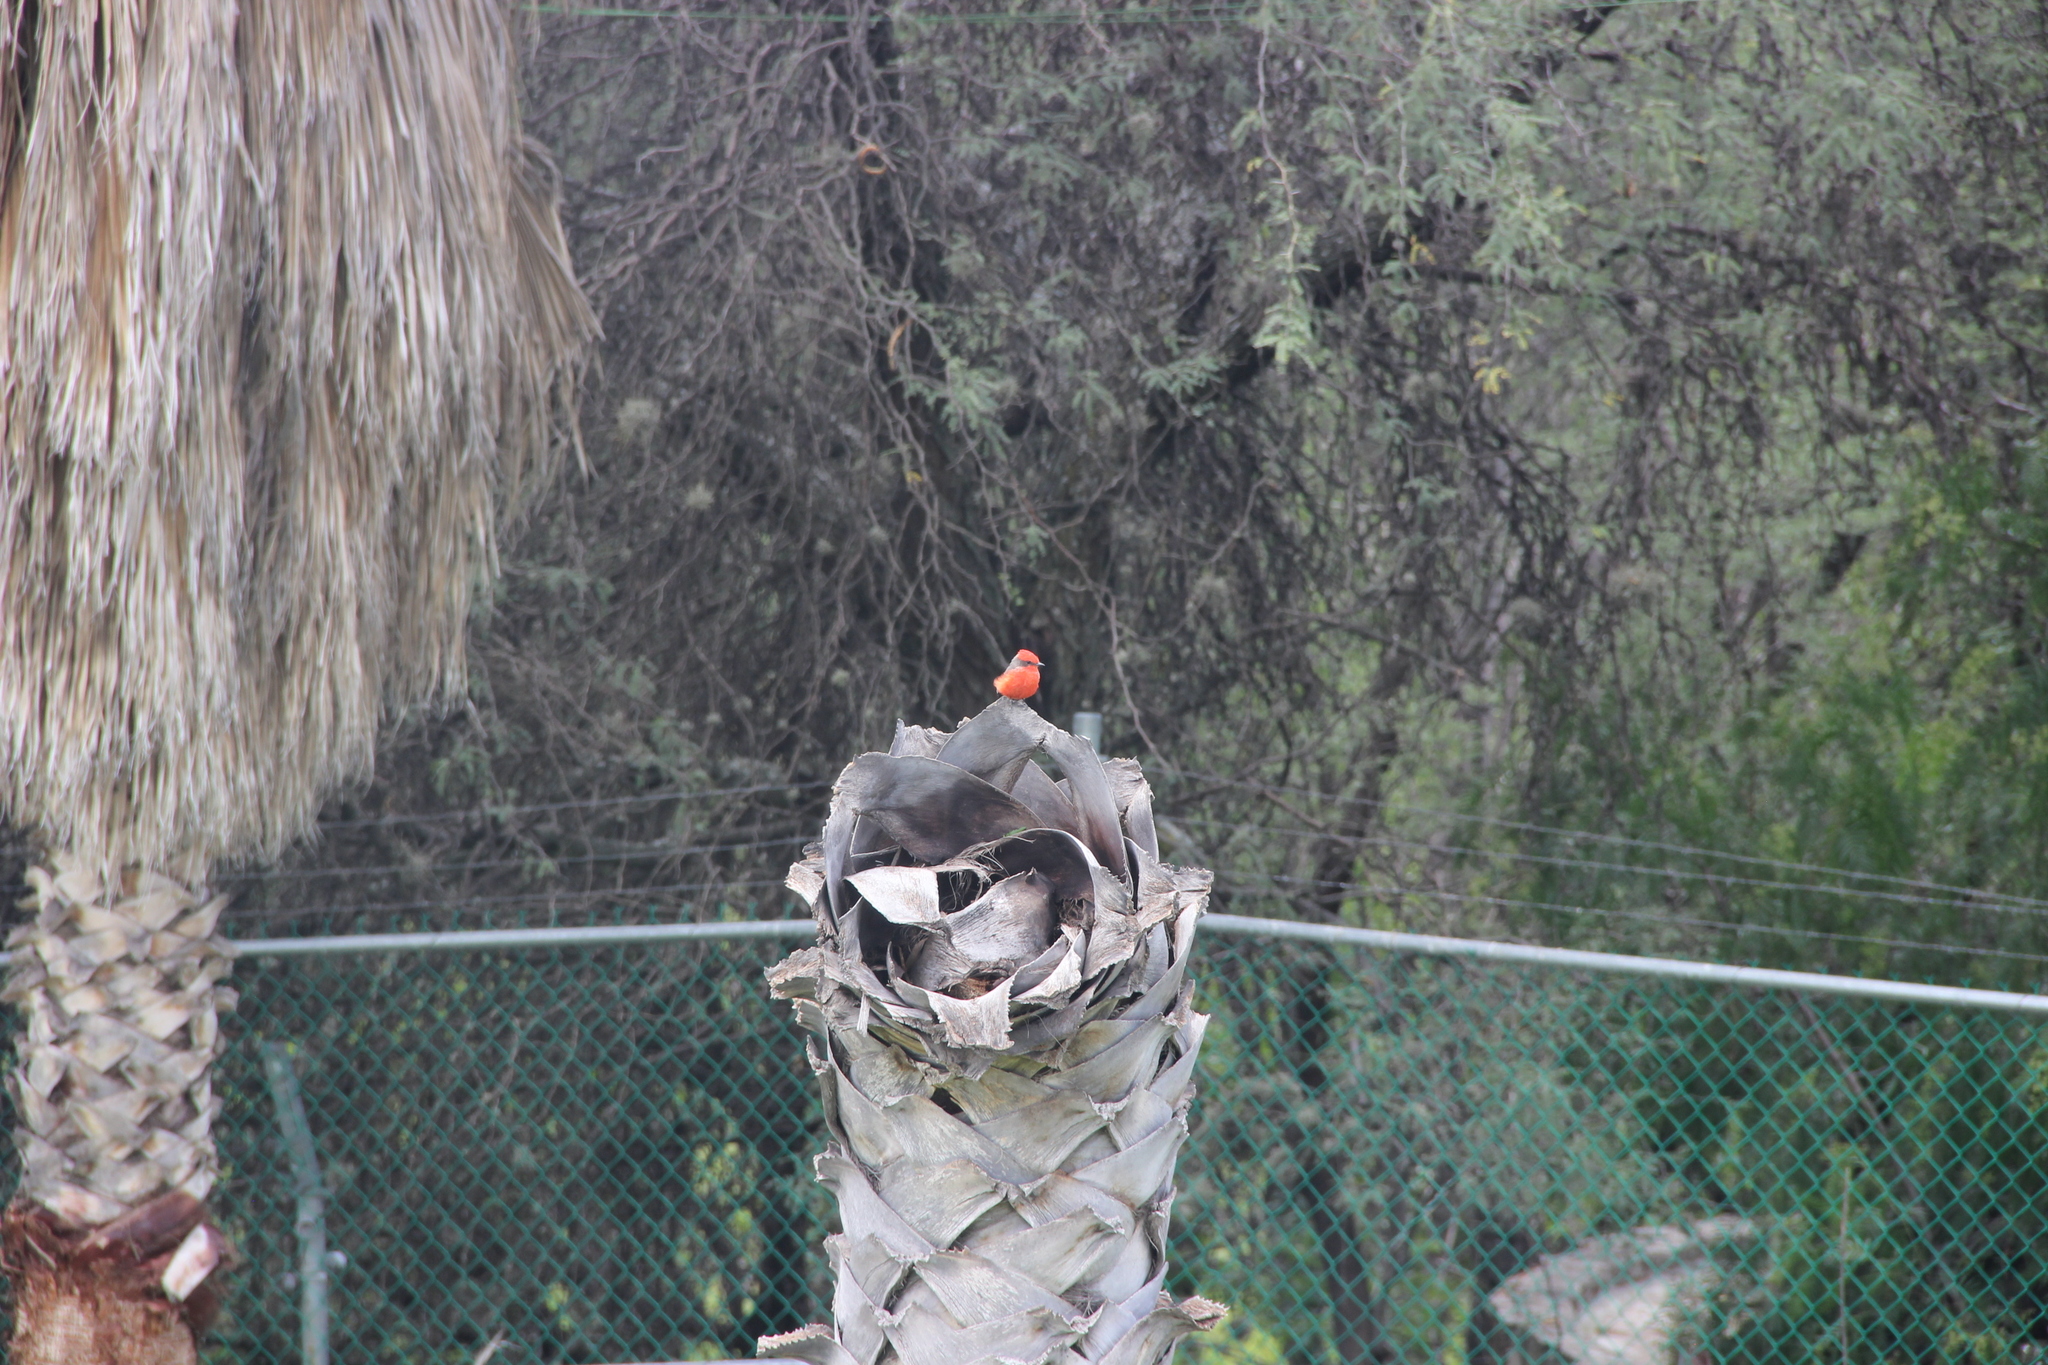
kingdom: Animalia
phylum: Chordata
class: Aves
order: Passeriformes
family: Tyrannidae
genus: Pyrocephalus
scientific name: Pyrocephalus rubinus
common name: Vermilion flycatcher
